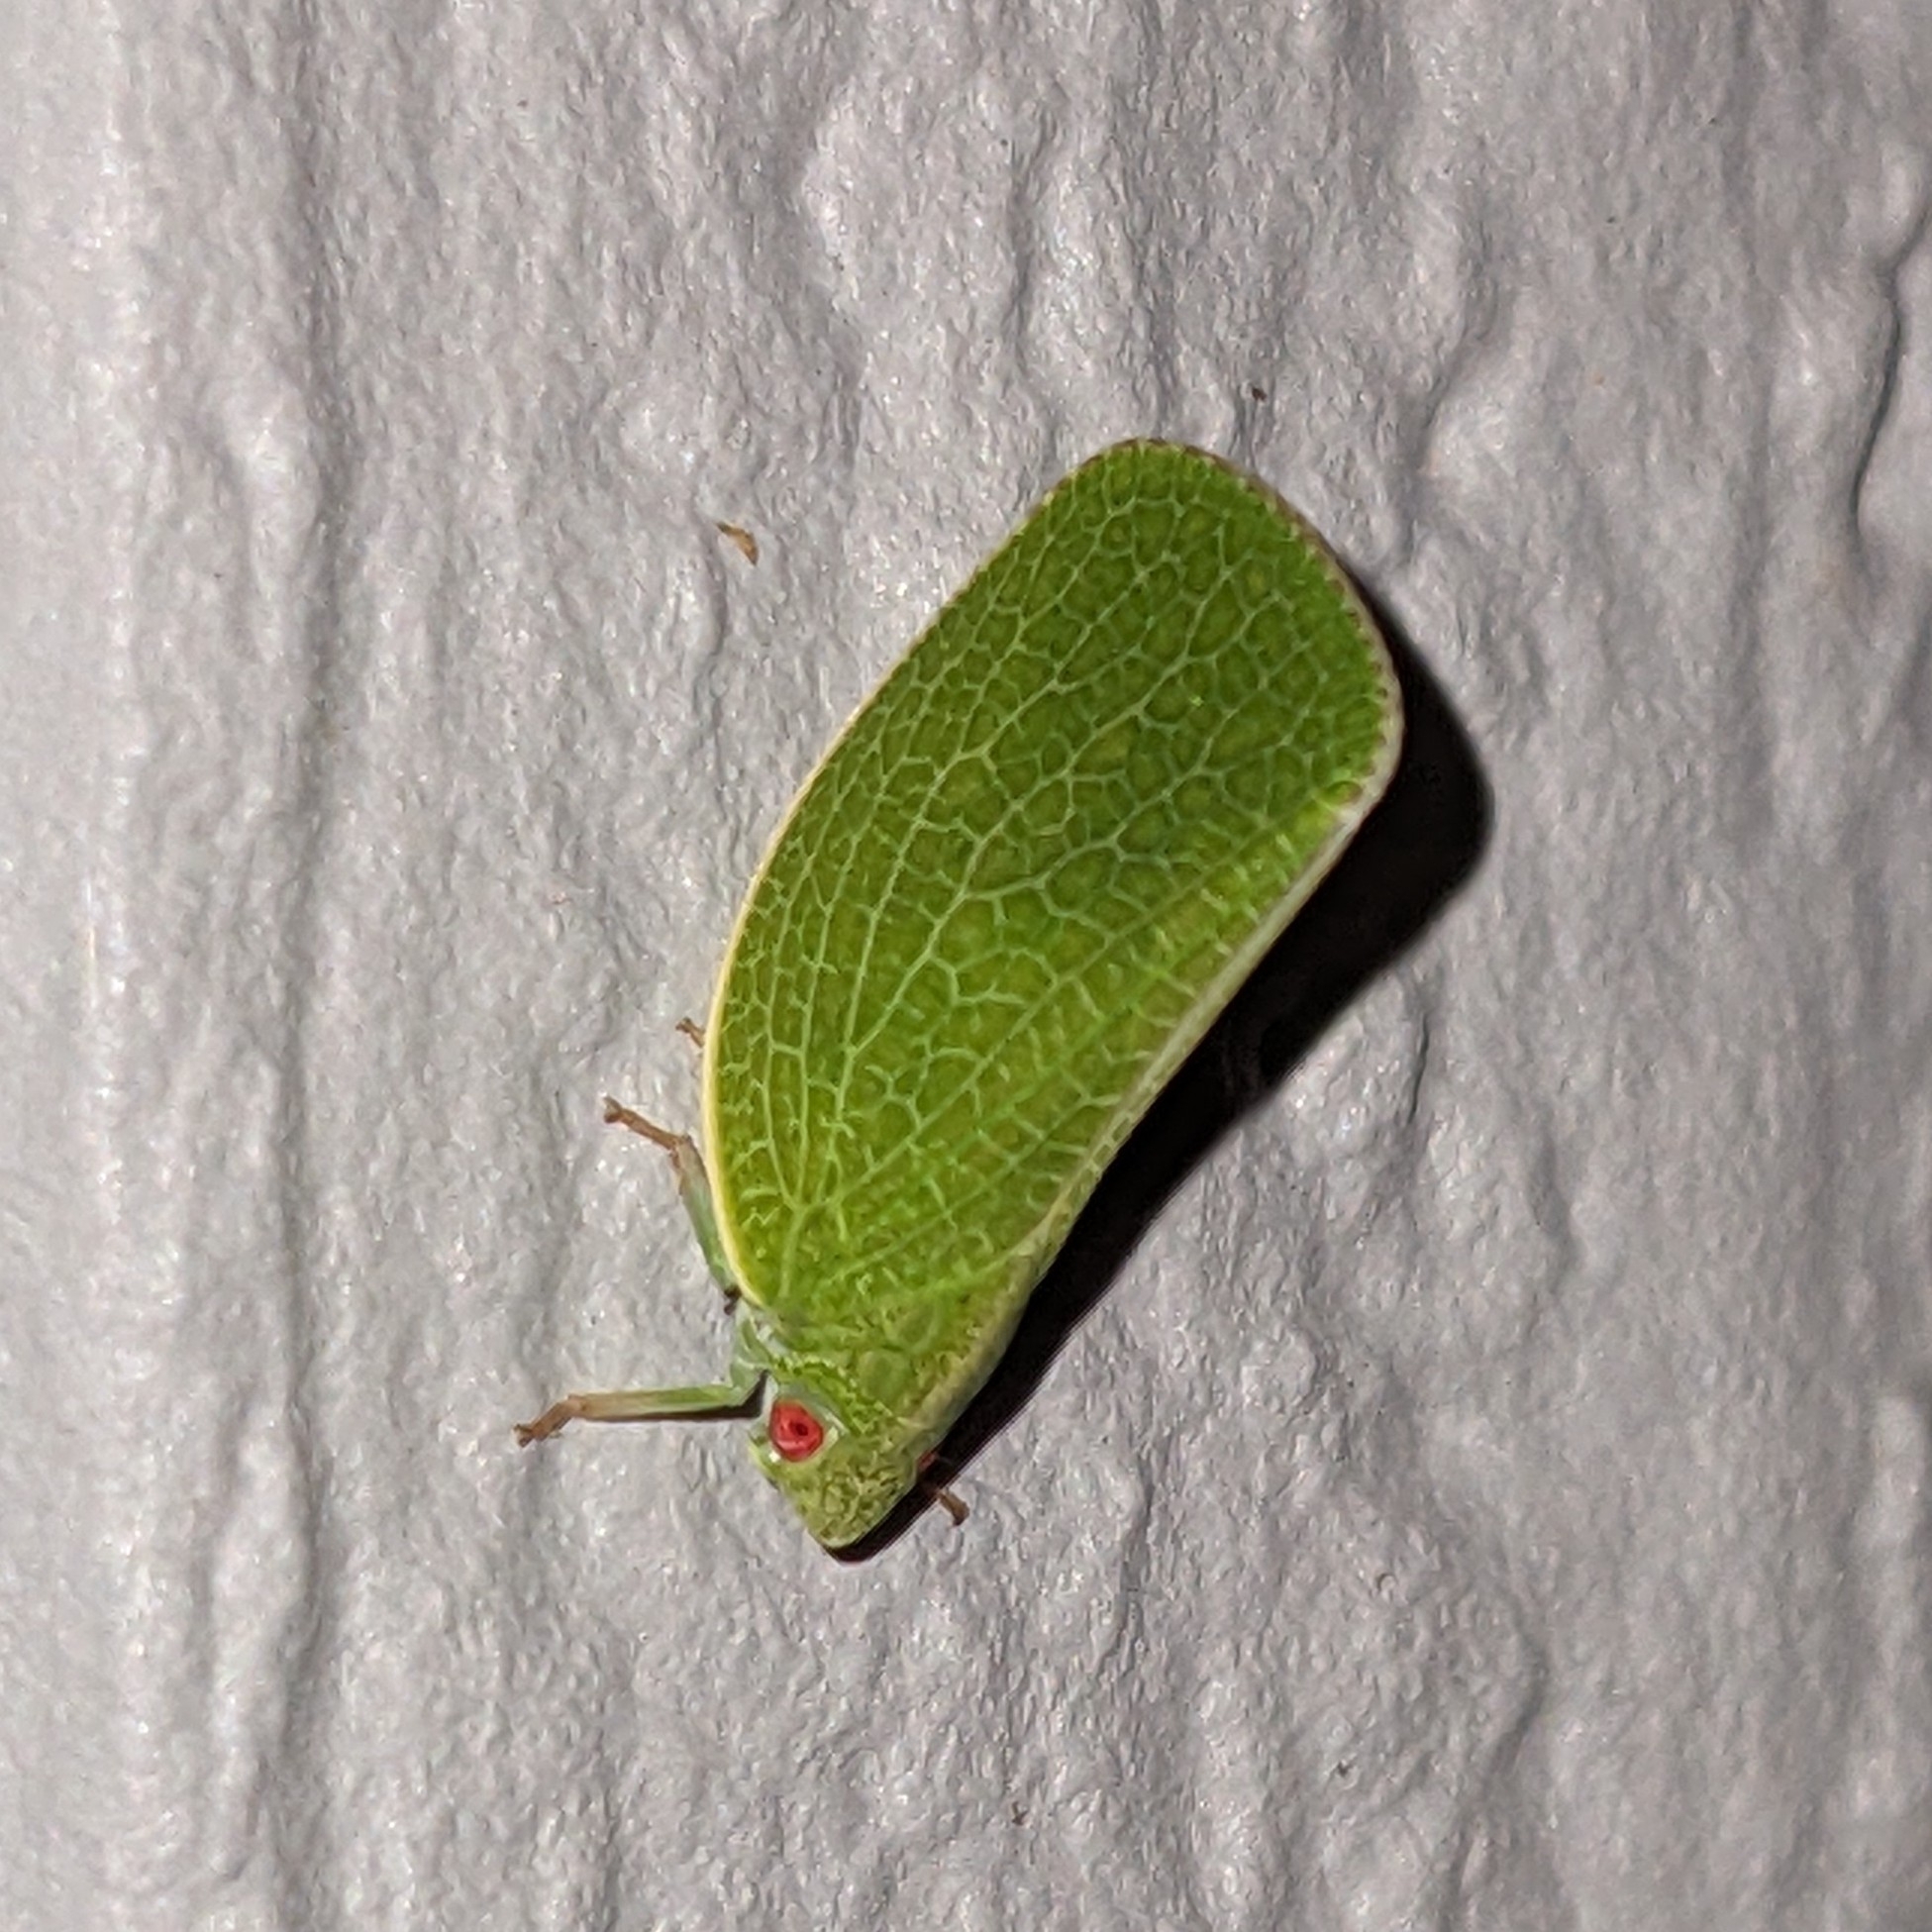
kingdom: Animalia
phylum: Arthropoda
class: Insecta
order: Hemiptera
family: Acanaloniidae
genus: Acanalonia
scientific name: Acanalonia conica
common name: Green cone-headed planthopper
